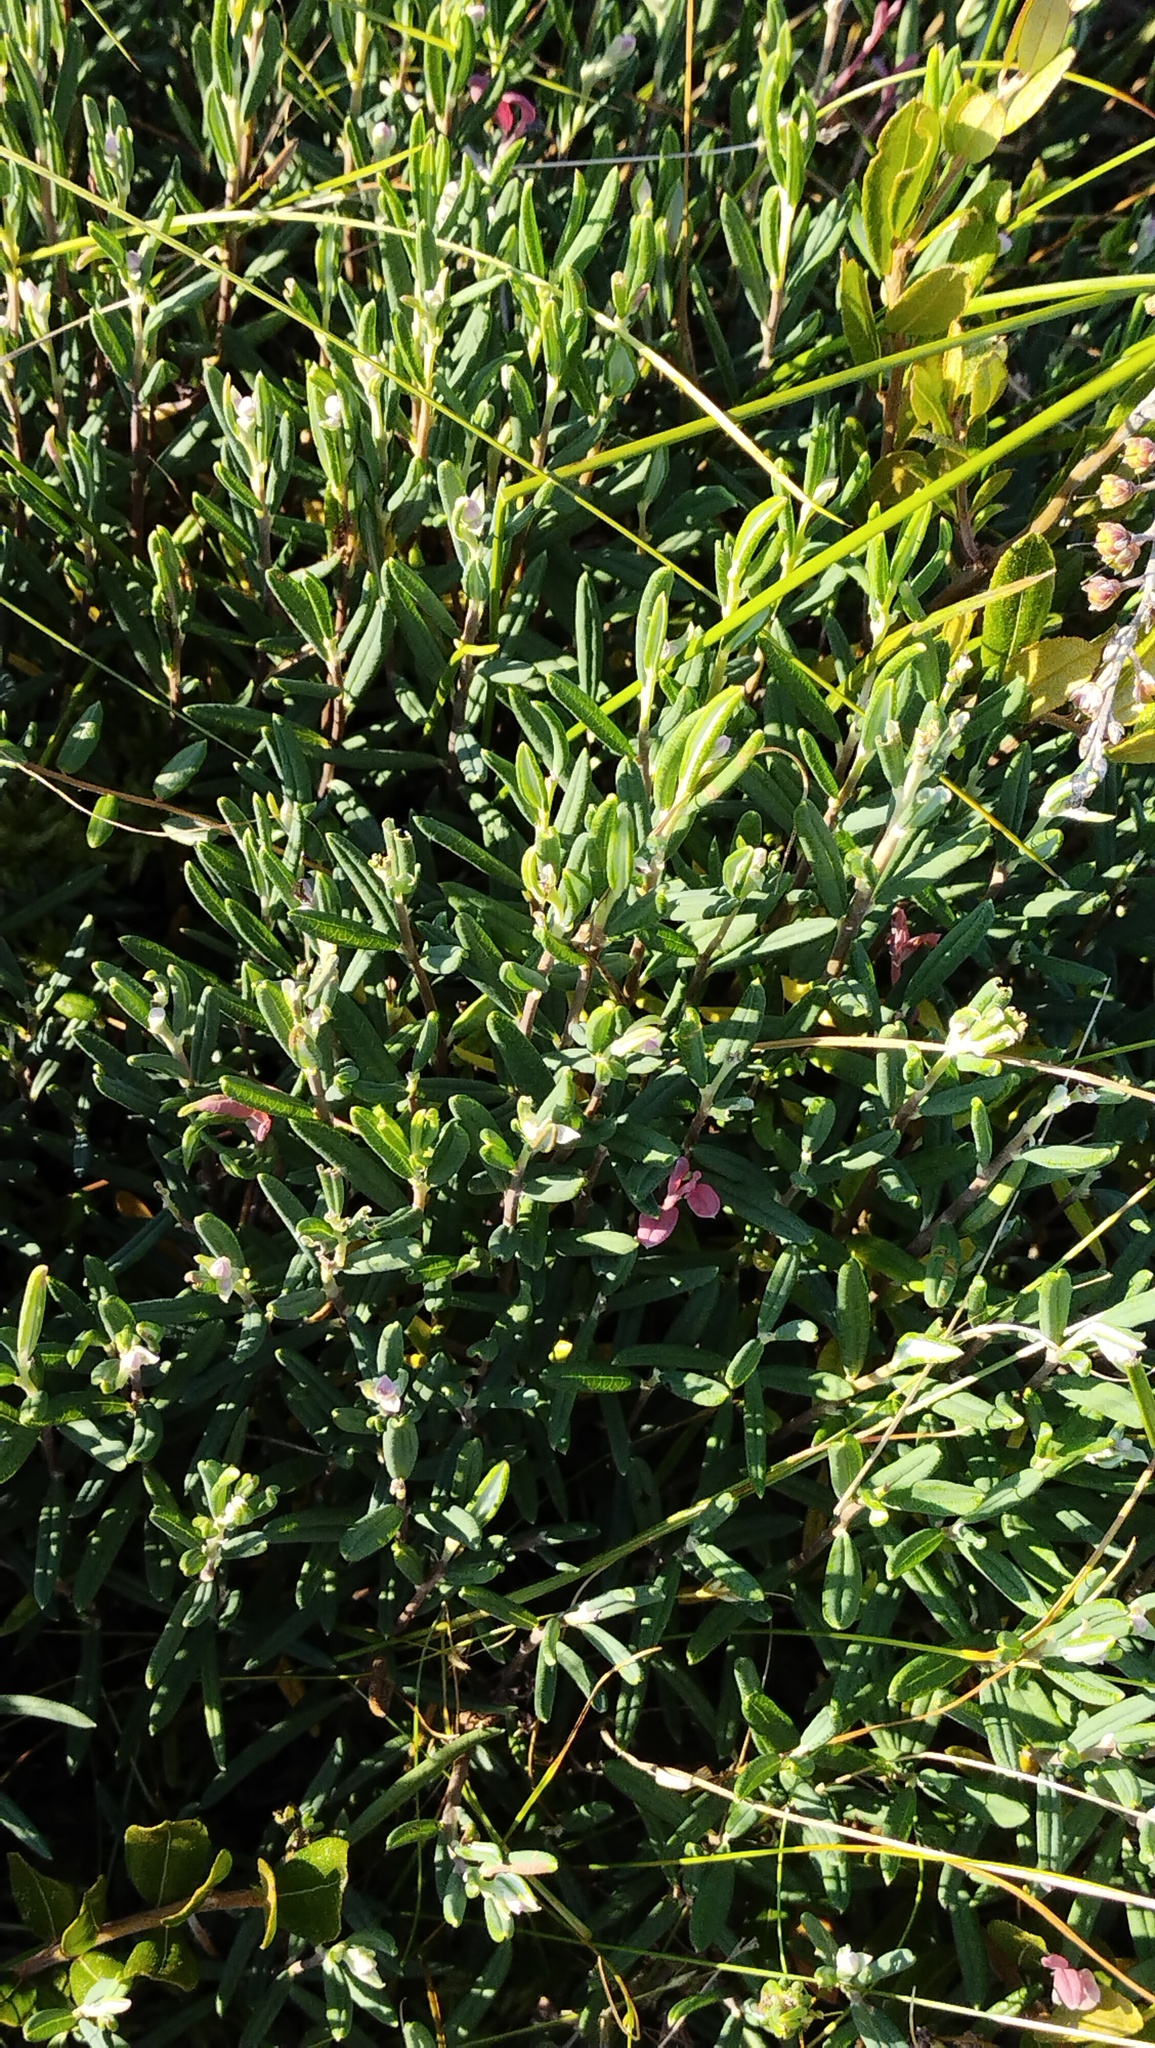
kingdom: Plantae
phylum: Tracheophyta
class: Magnoliopsida
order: Ericales
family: Ericaceae
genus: Andromeda
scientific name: Andromeda polifolia
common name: Bog-rosemary
